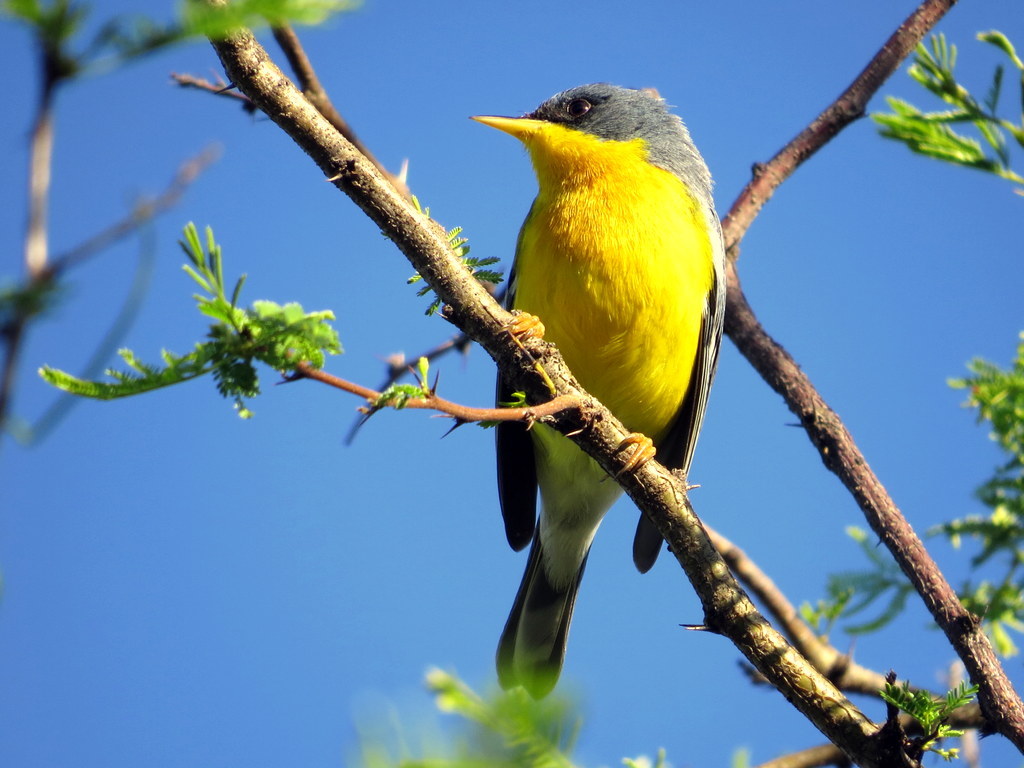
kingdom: Animalia
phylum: Chordata
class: Aves
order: Passeriformes
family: Parulidae
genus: Setophaga
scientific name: Setophaga pitiayumi
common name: Tropical parula
